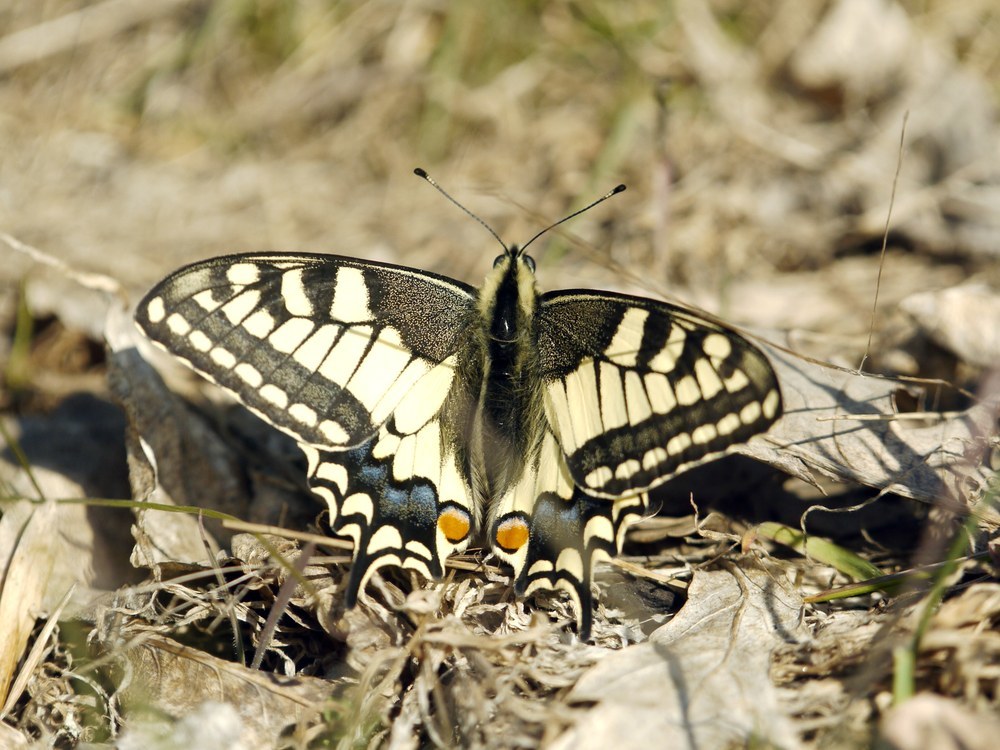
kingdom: Animalia
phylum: Arthropoda
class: Insecta
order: Lepidoptera
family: Papilionidae
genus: Papilio
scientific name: Papilio machaon
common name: Swallowtail
